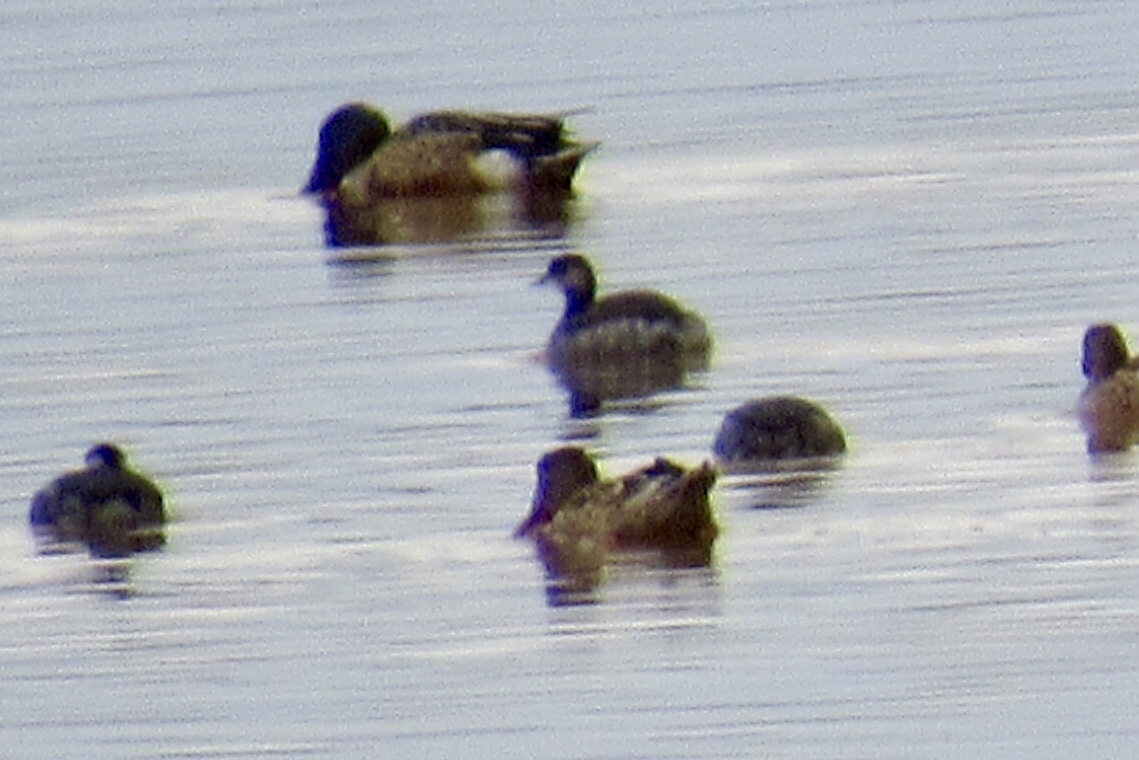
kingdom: Animalia
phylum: Chordata
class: Aves
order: Podicipediformes
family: Podicipedidae
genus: Podiceps
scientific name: Podiceps nigricollis
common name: Black-necked grebe
